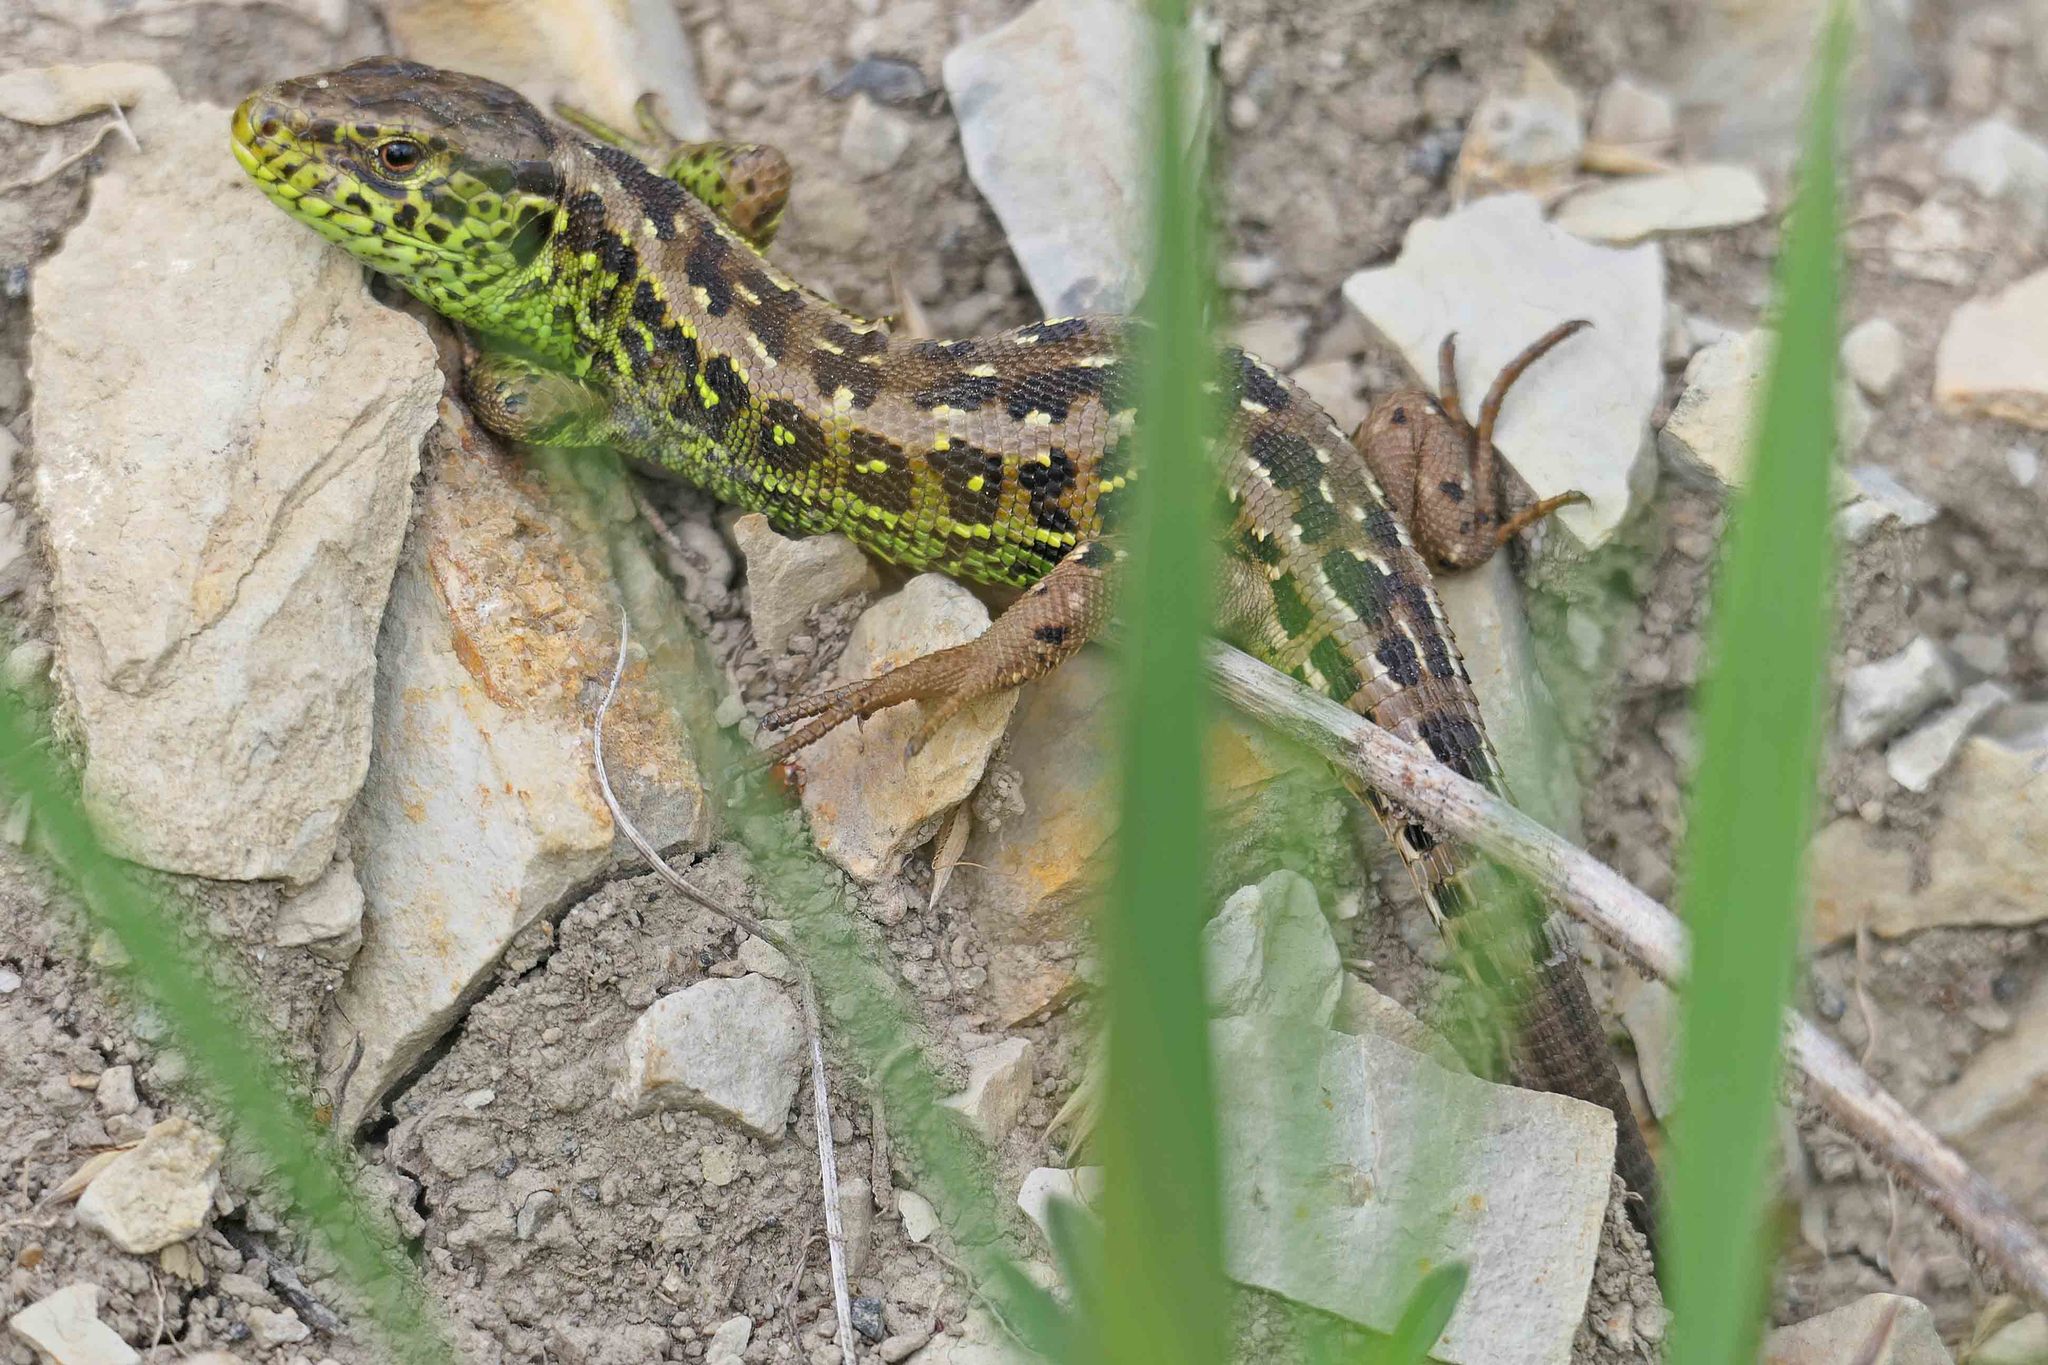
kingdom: Animalia
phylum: Chordata
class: Squamata
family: Lacertidae
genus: Lacerta
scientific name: Lacerta agilis
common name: Sand lizard
